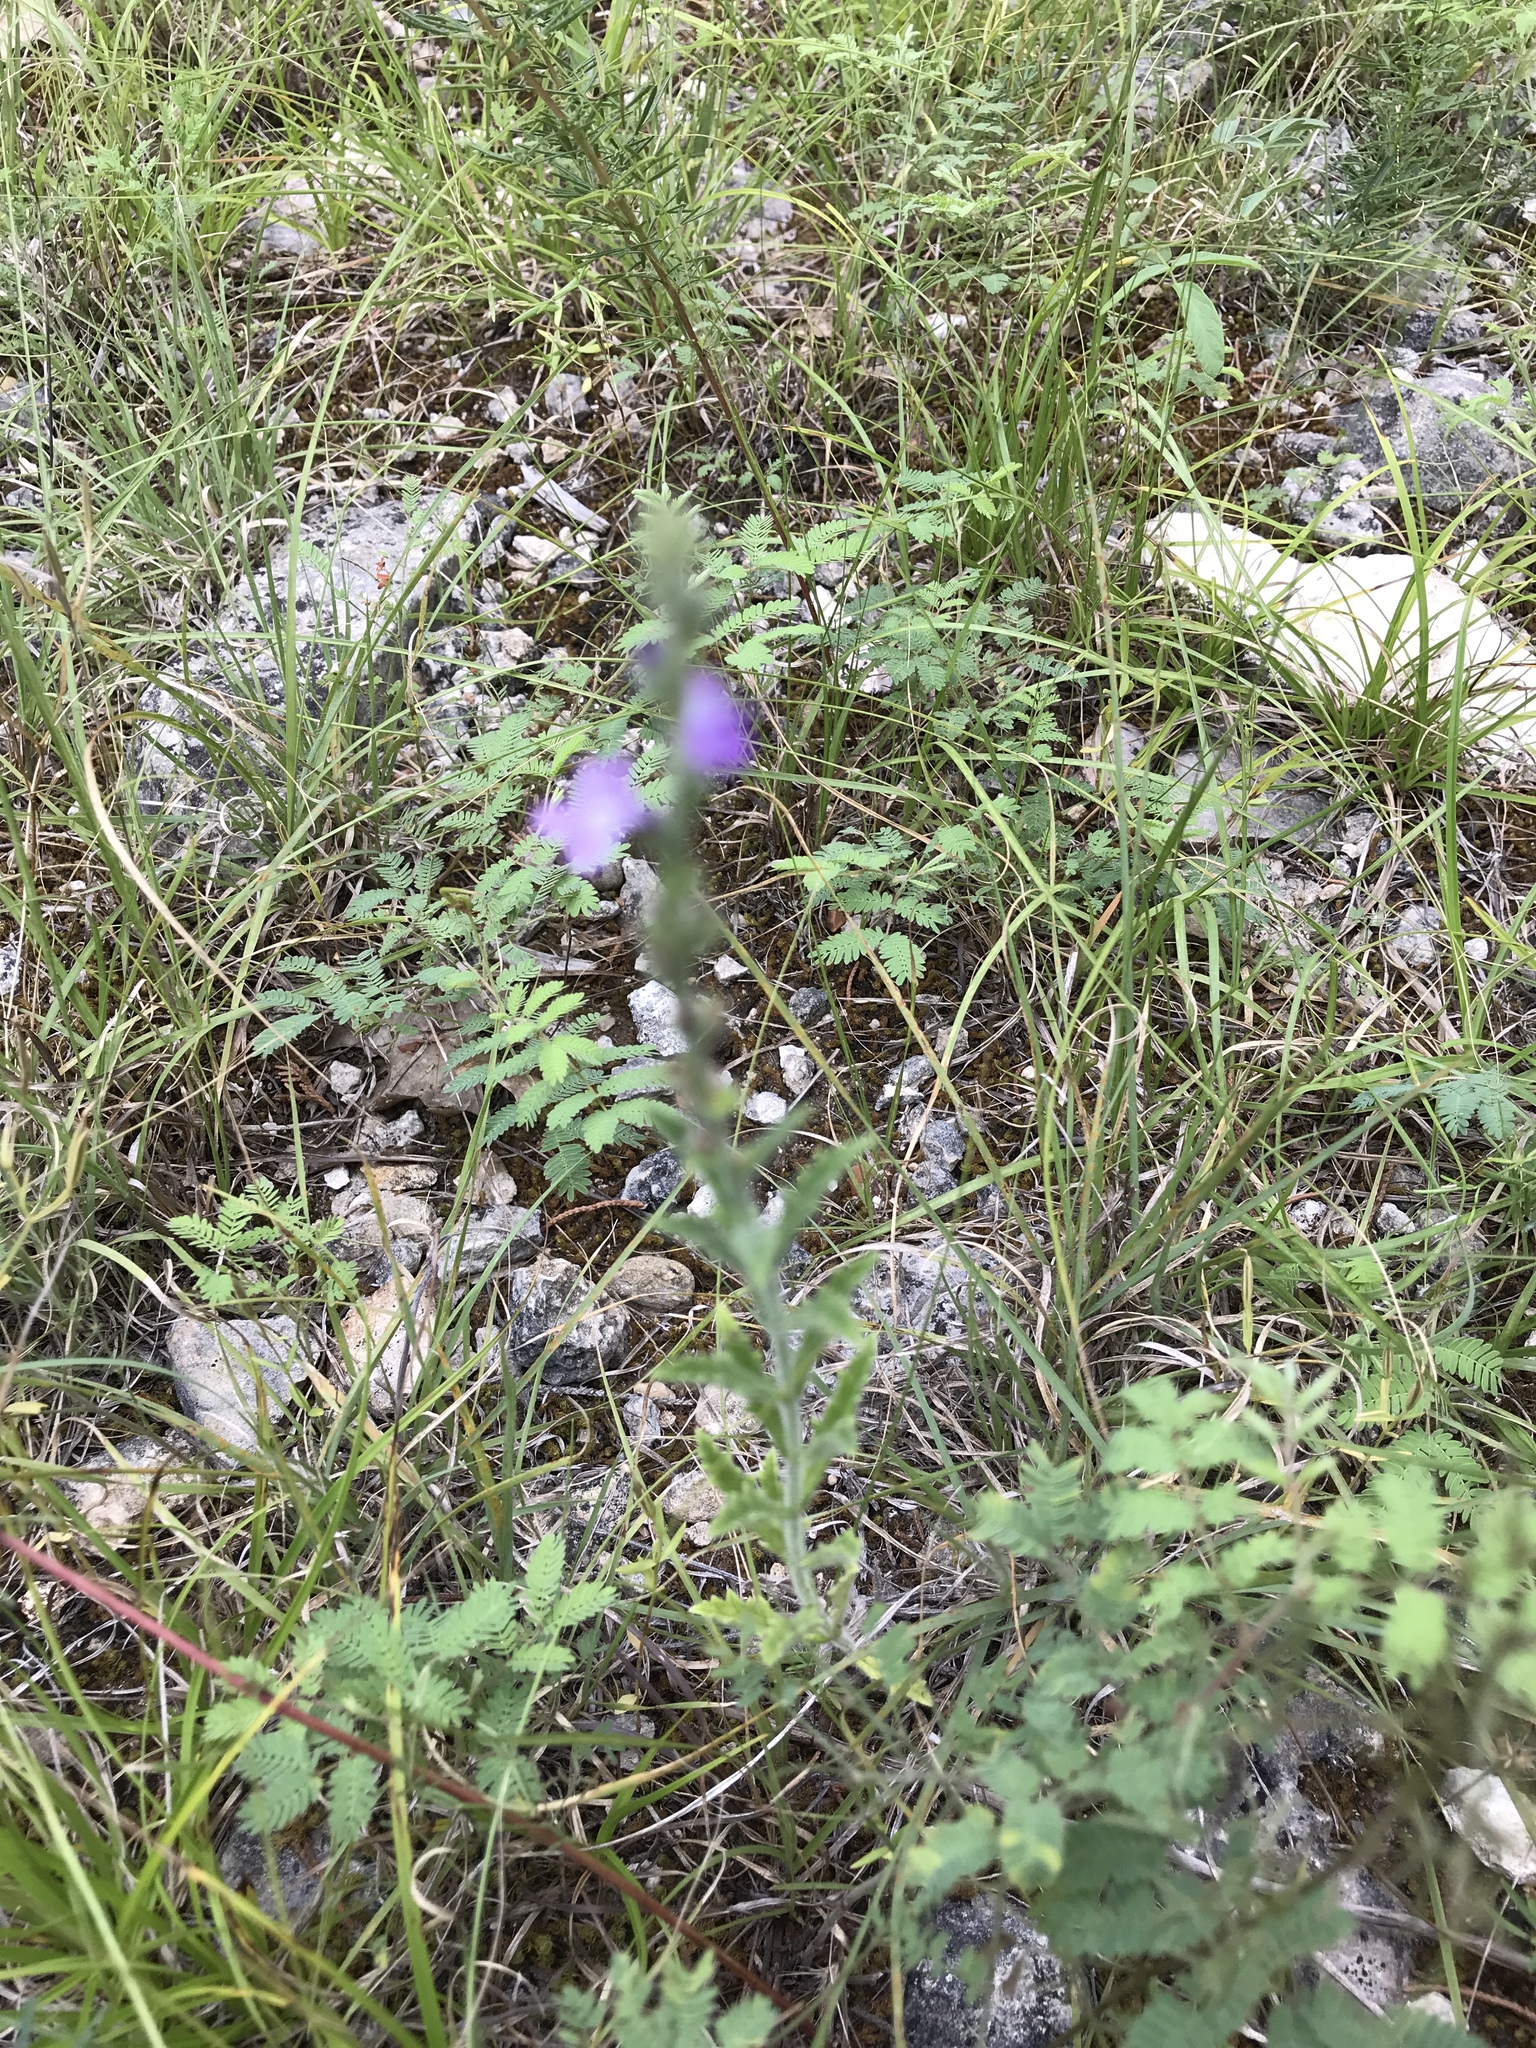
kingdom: Plantae
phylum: Tracheophyta
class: Magnoliopsida
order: Lamiales
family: Verbenaceae
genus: Verbena
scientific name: Verbena canescens
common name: Gray vervain
